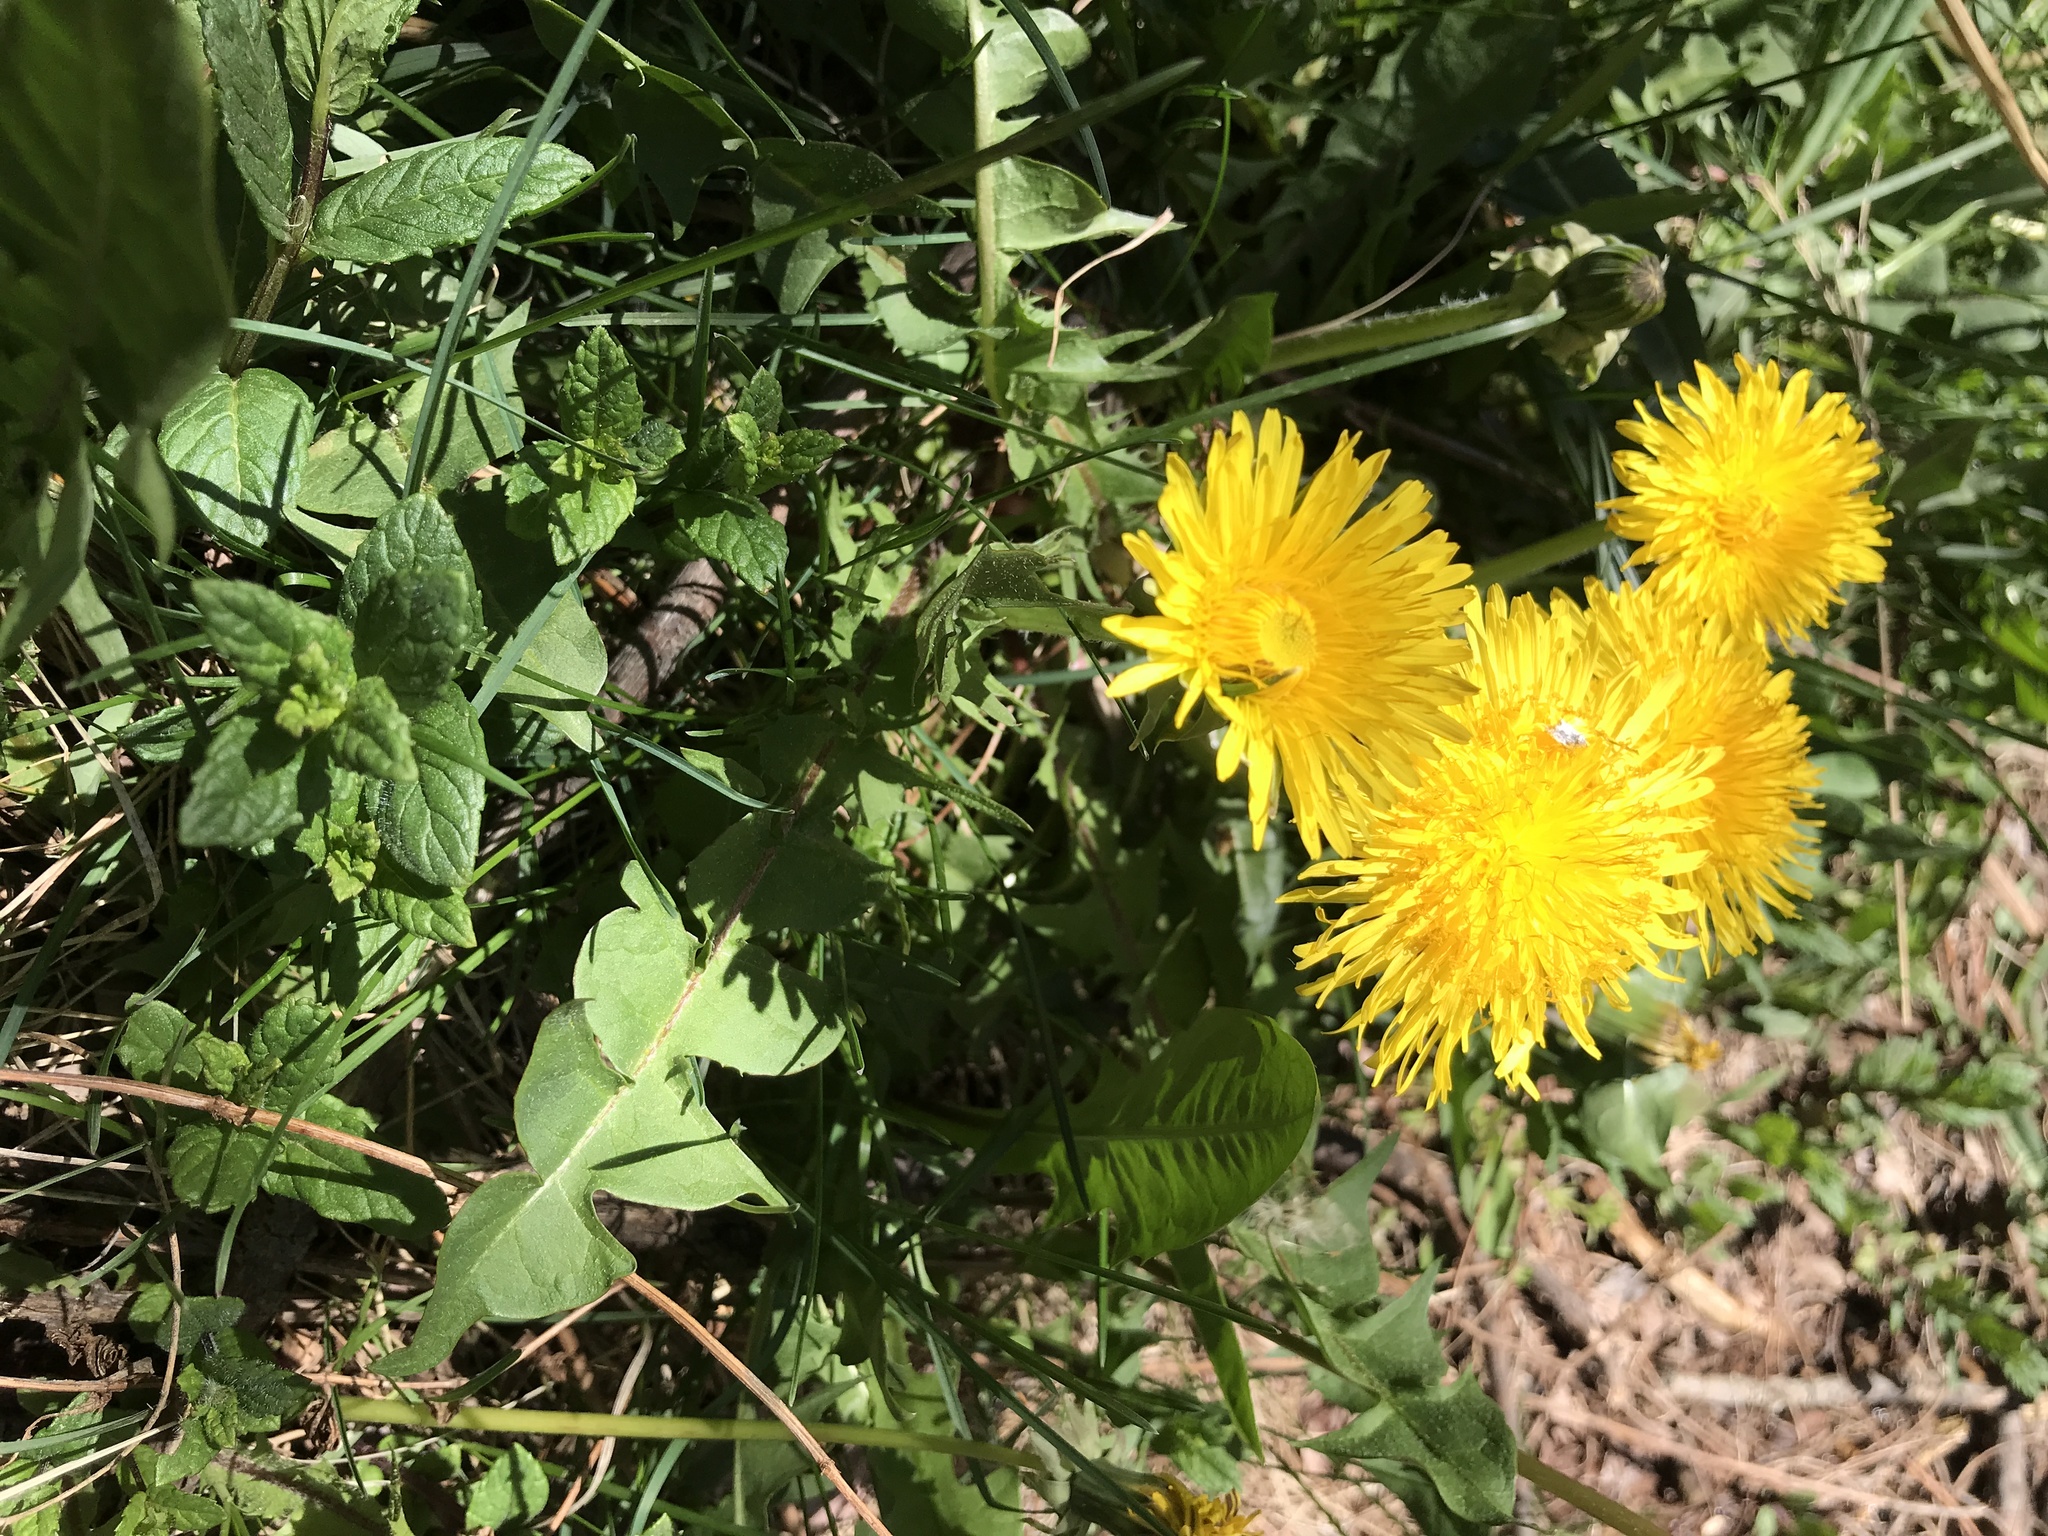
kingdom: Plantae
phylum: Tracheophyta
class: Magnoliopsida
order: Asterales
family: Asteraceae
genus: Taraxacum
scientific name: Taraxacum officinale
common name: Common dandelion
